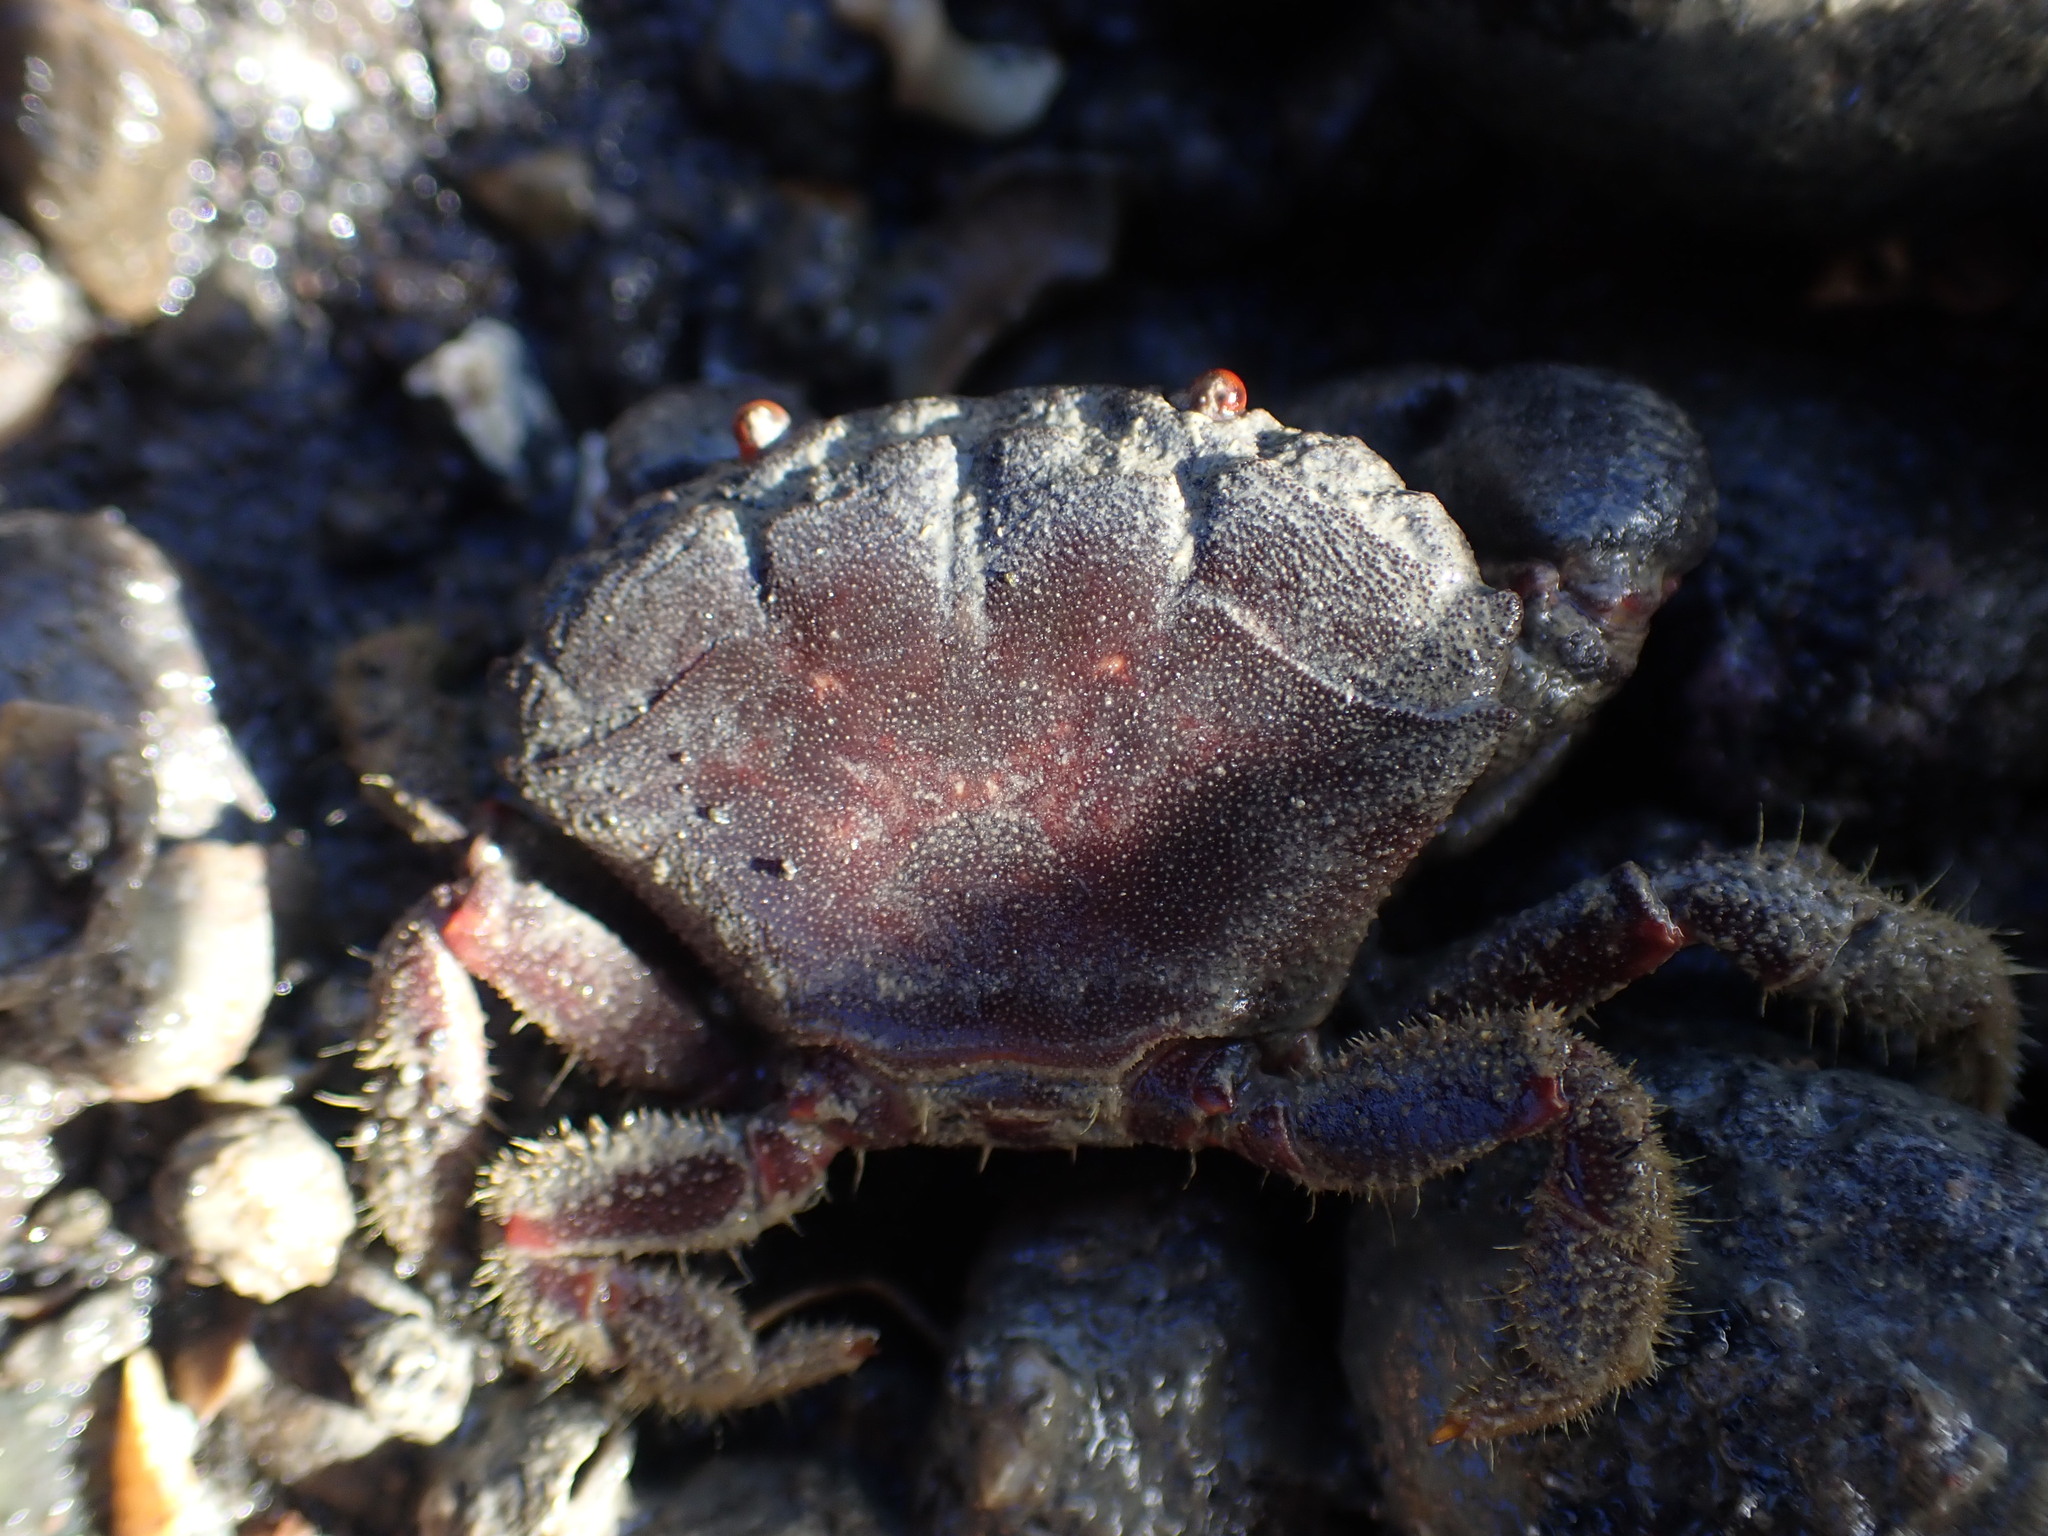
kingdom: Animalia
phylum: Arthropoda
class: Malacostraca
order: Decapoda
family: Oziidae
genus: Ozius
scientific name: Ozius deplanatus
